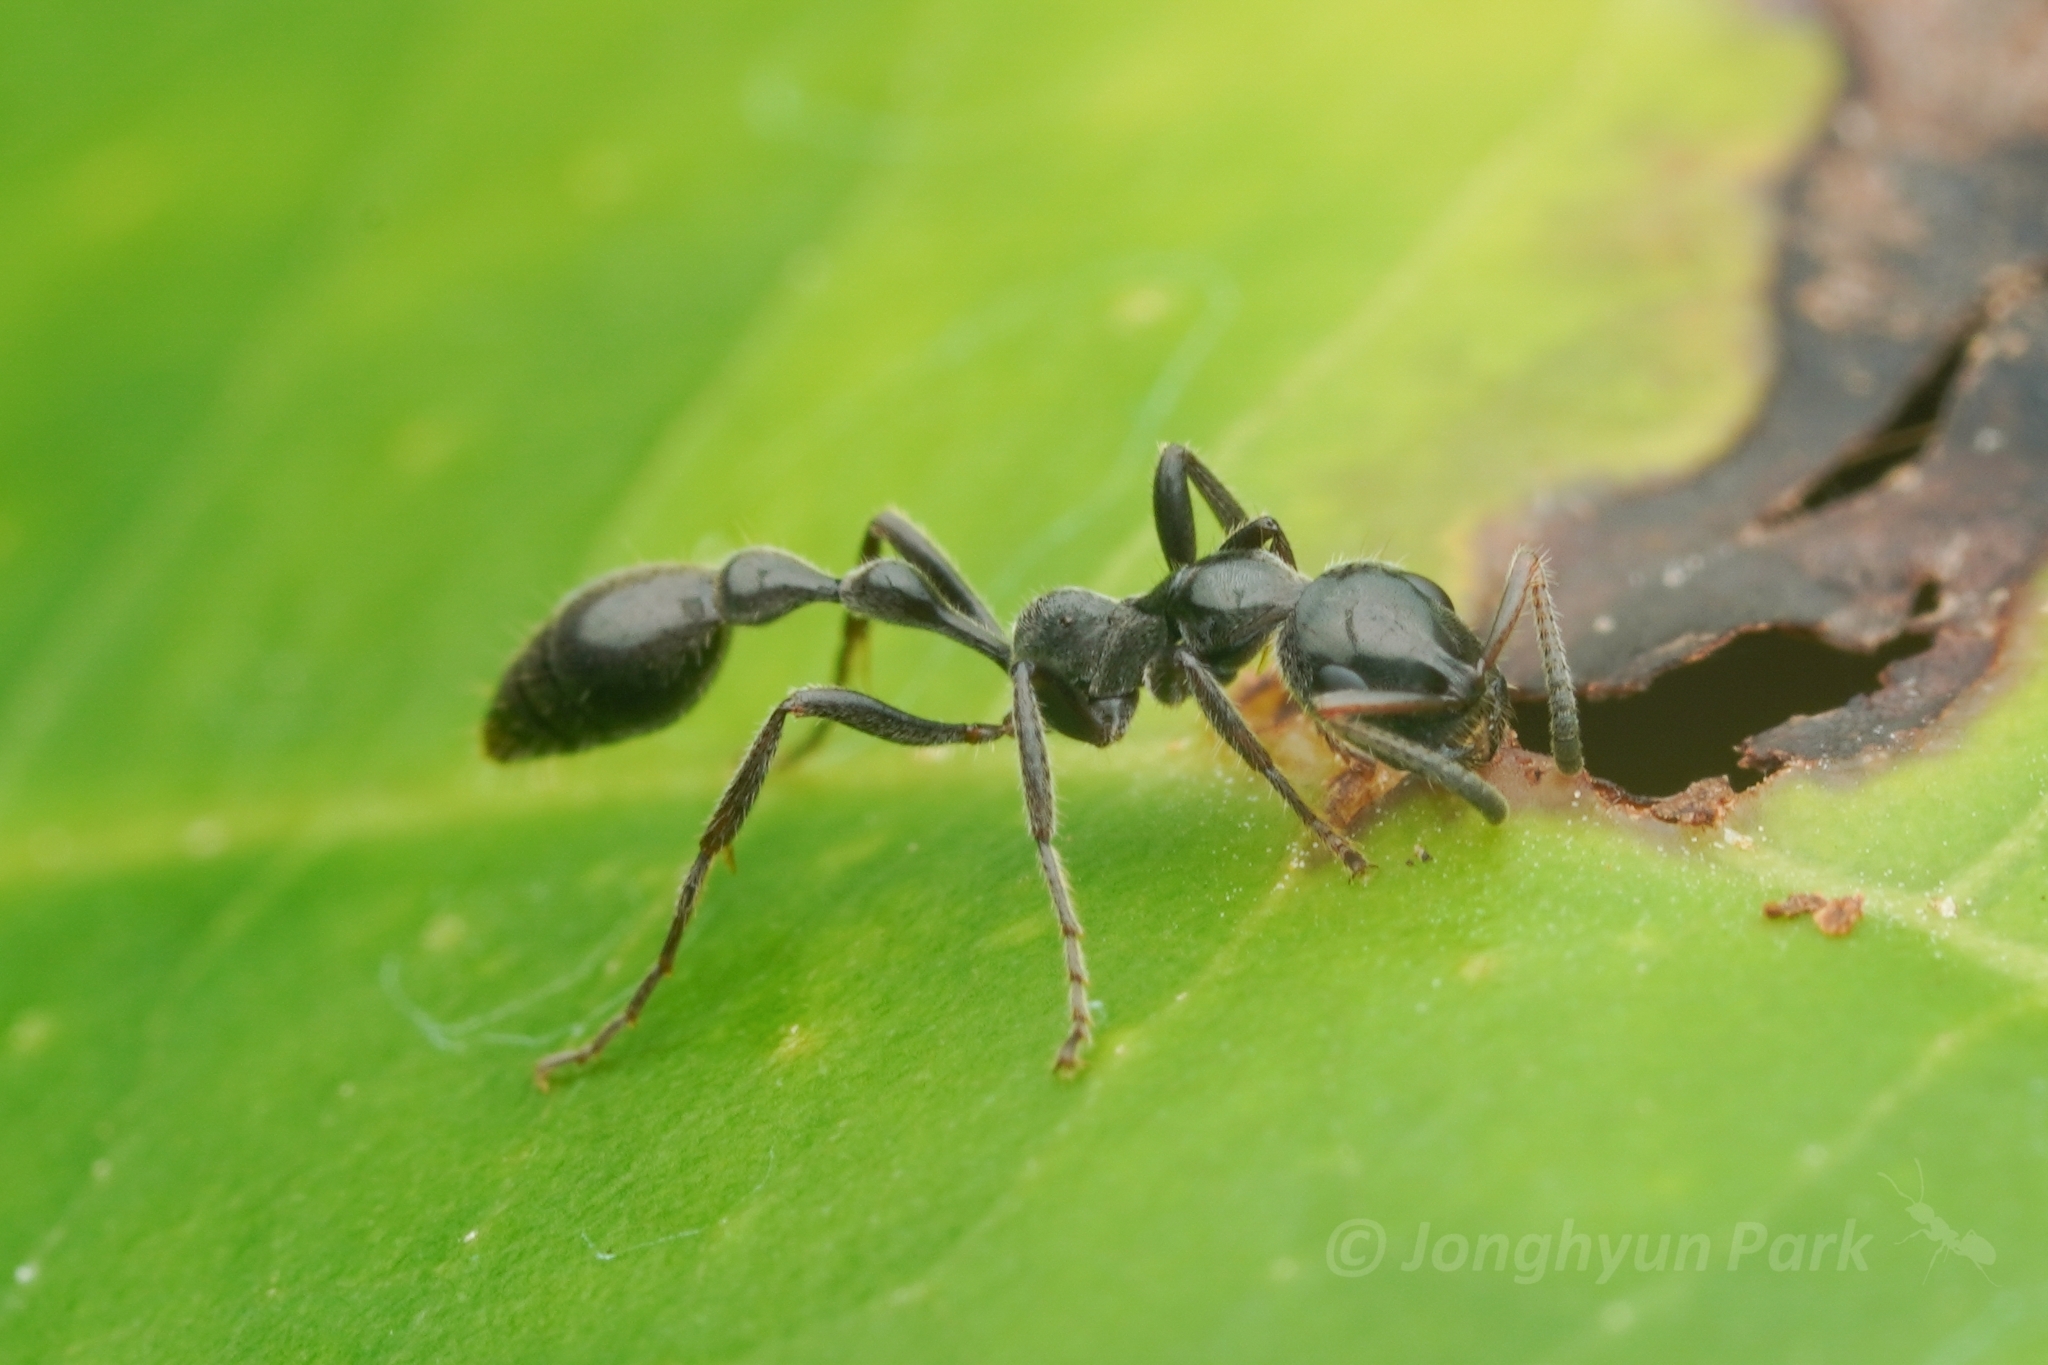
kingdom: Animalia
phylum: Arthropoda
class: Insecta
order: Hymenoptera
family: Formicidae
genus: Tetraponera
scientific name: Tetraponera attenuata
